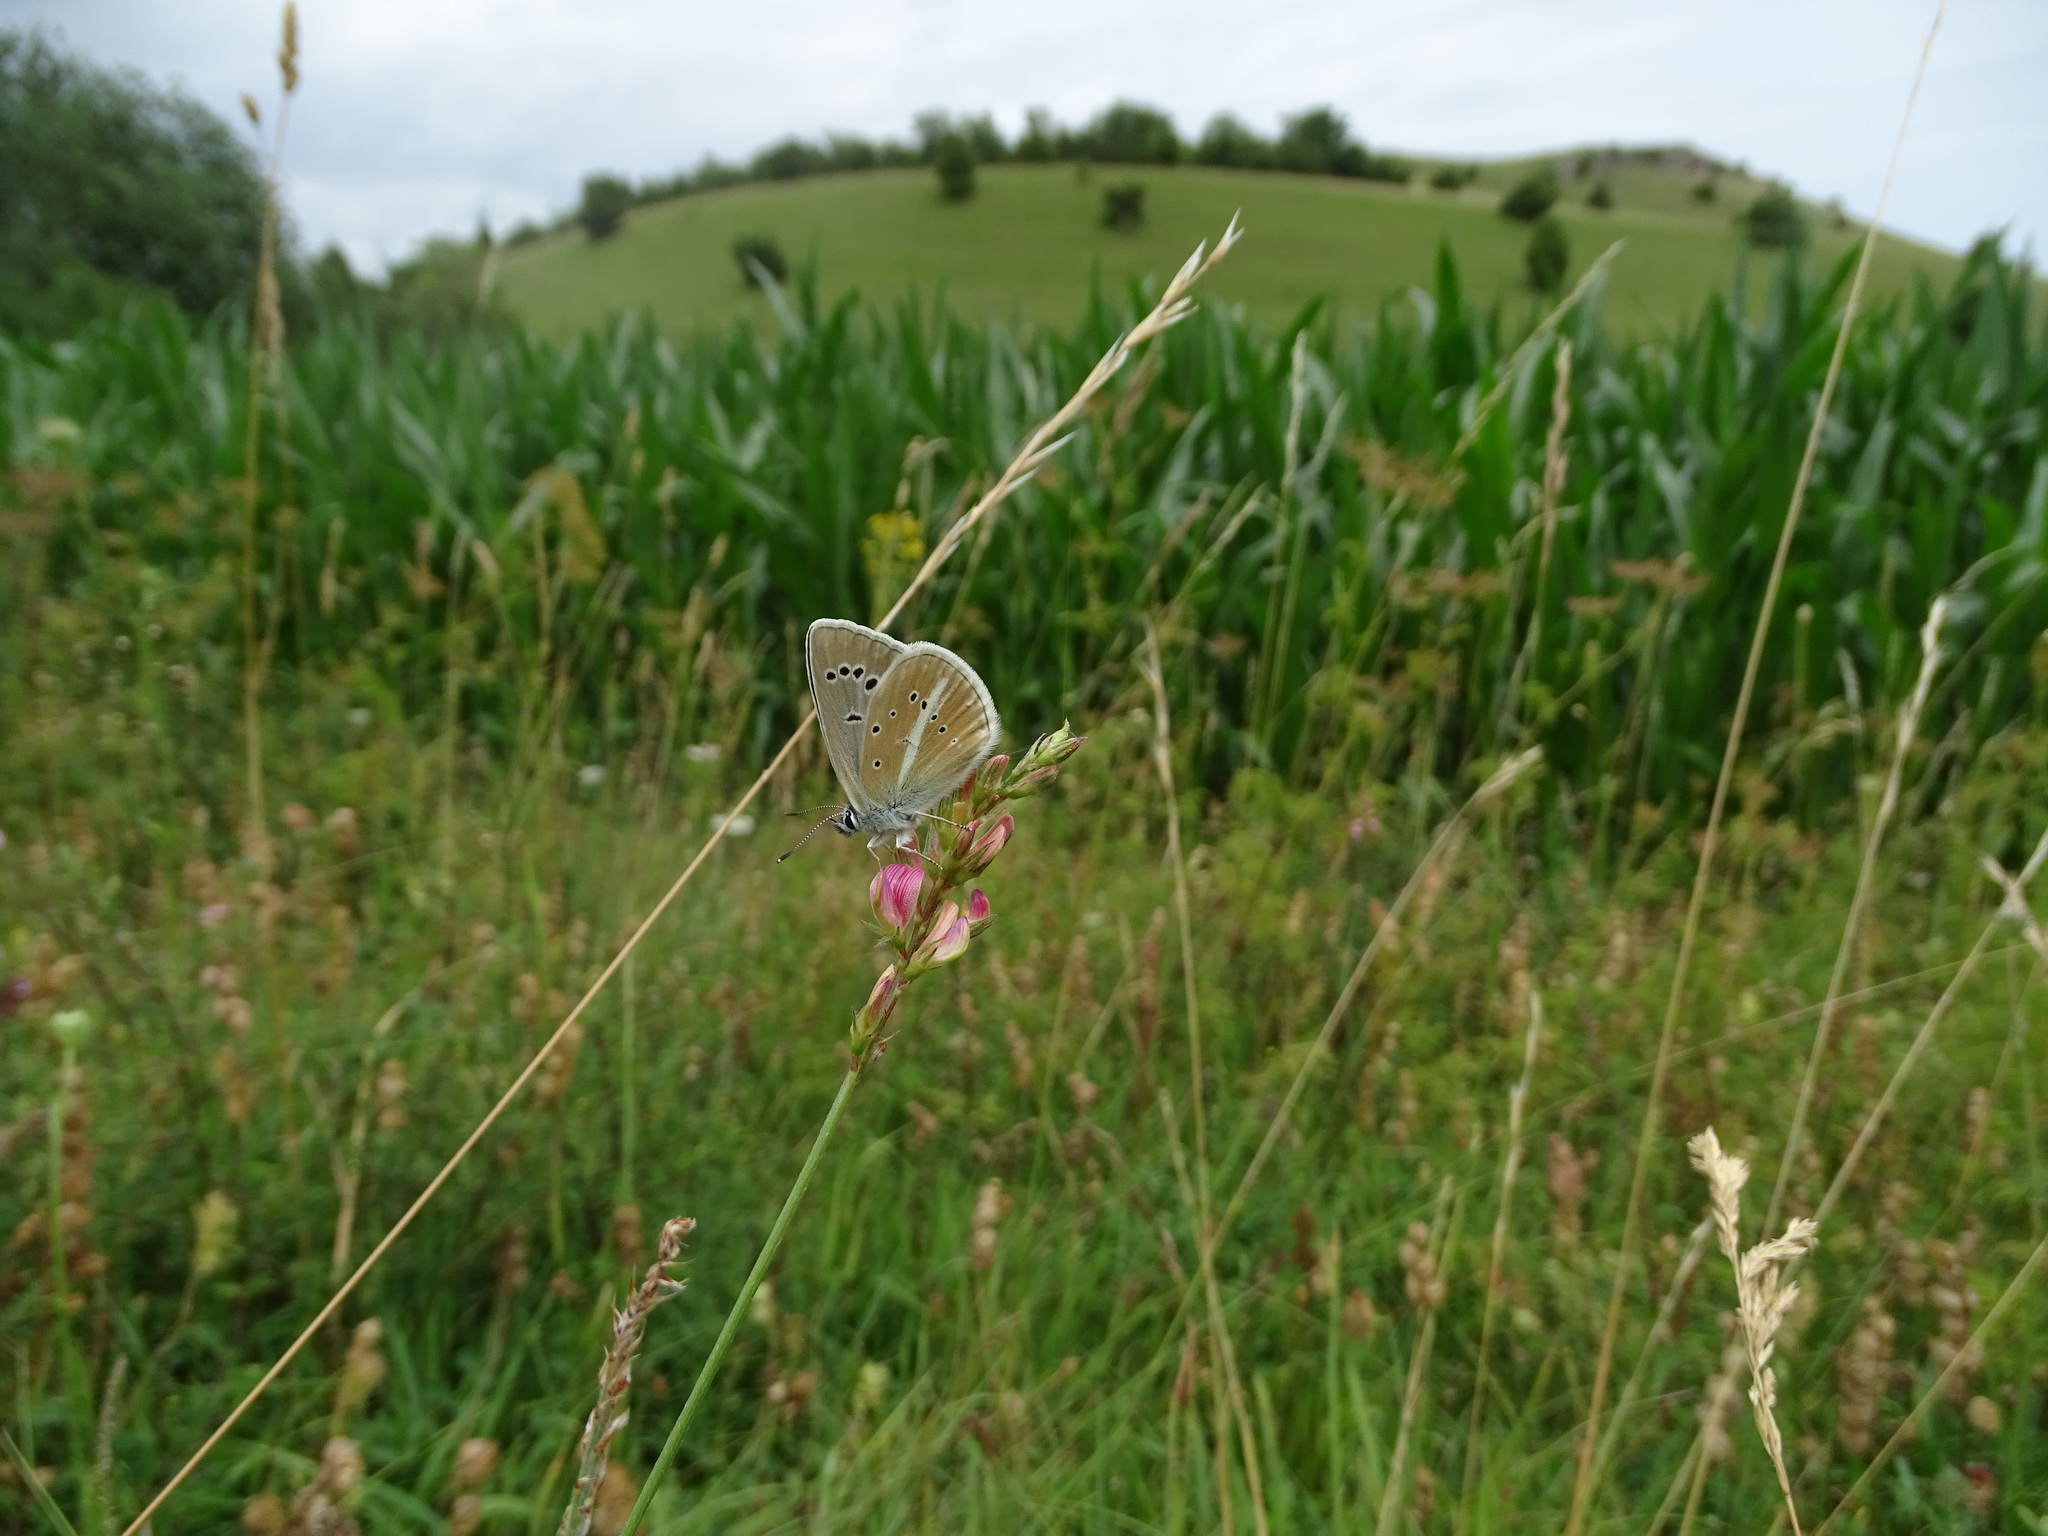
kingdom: Animalia
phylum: Arthropoda
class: Insecta
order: Lepidoptera
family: Lycaenidae
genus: Agrodiaetus
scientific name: Agrodiaetus damon
